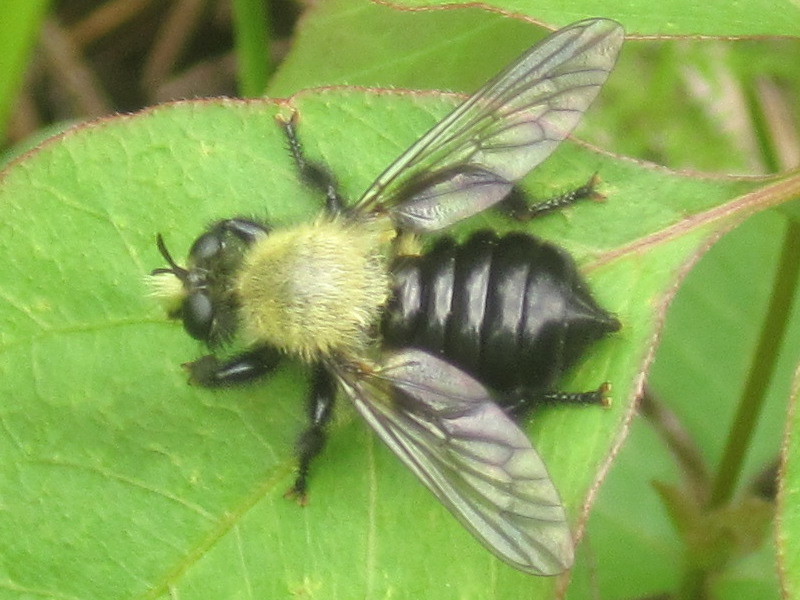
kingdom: Animalia
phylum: Arthropoda
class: Insecta
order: Diptera
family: Asilidae
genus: Laphria
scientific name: Laphria flavicollis
